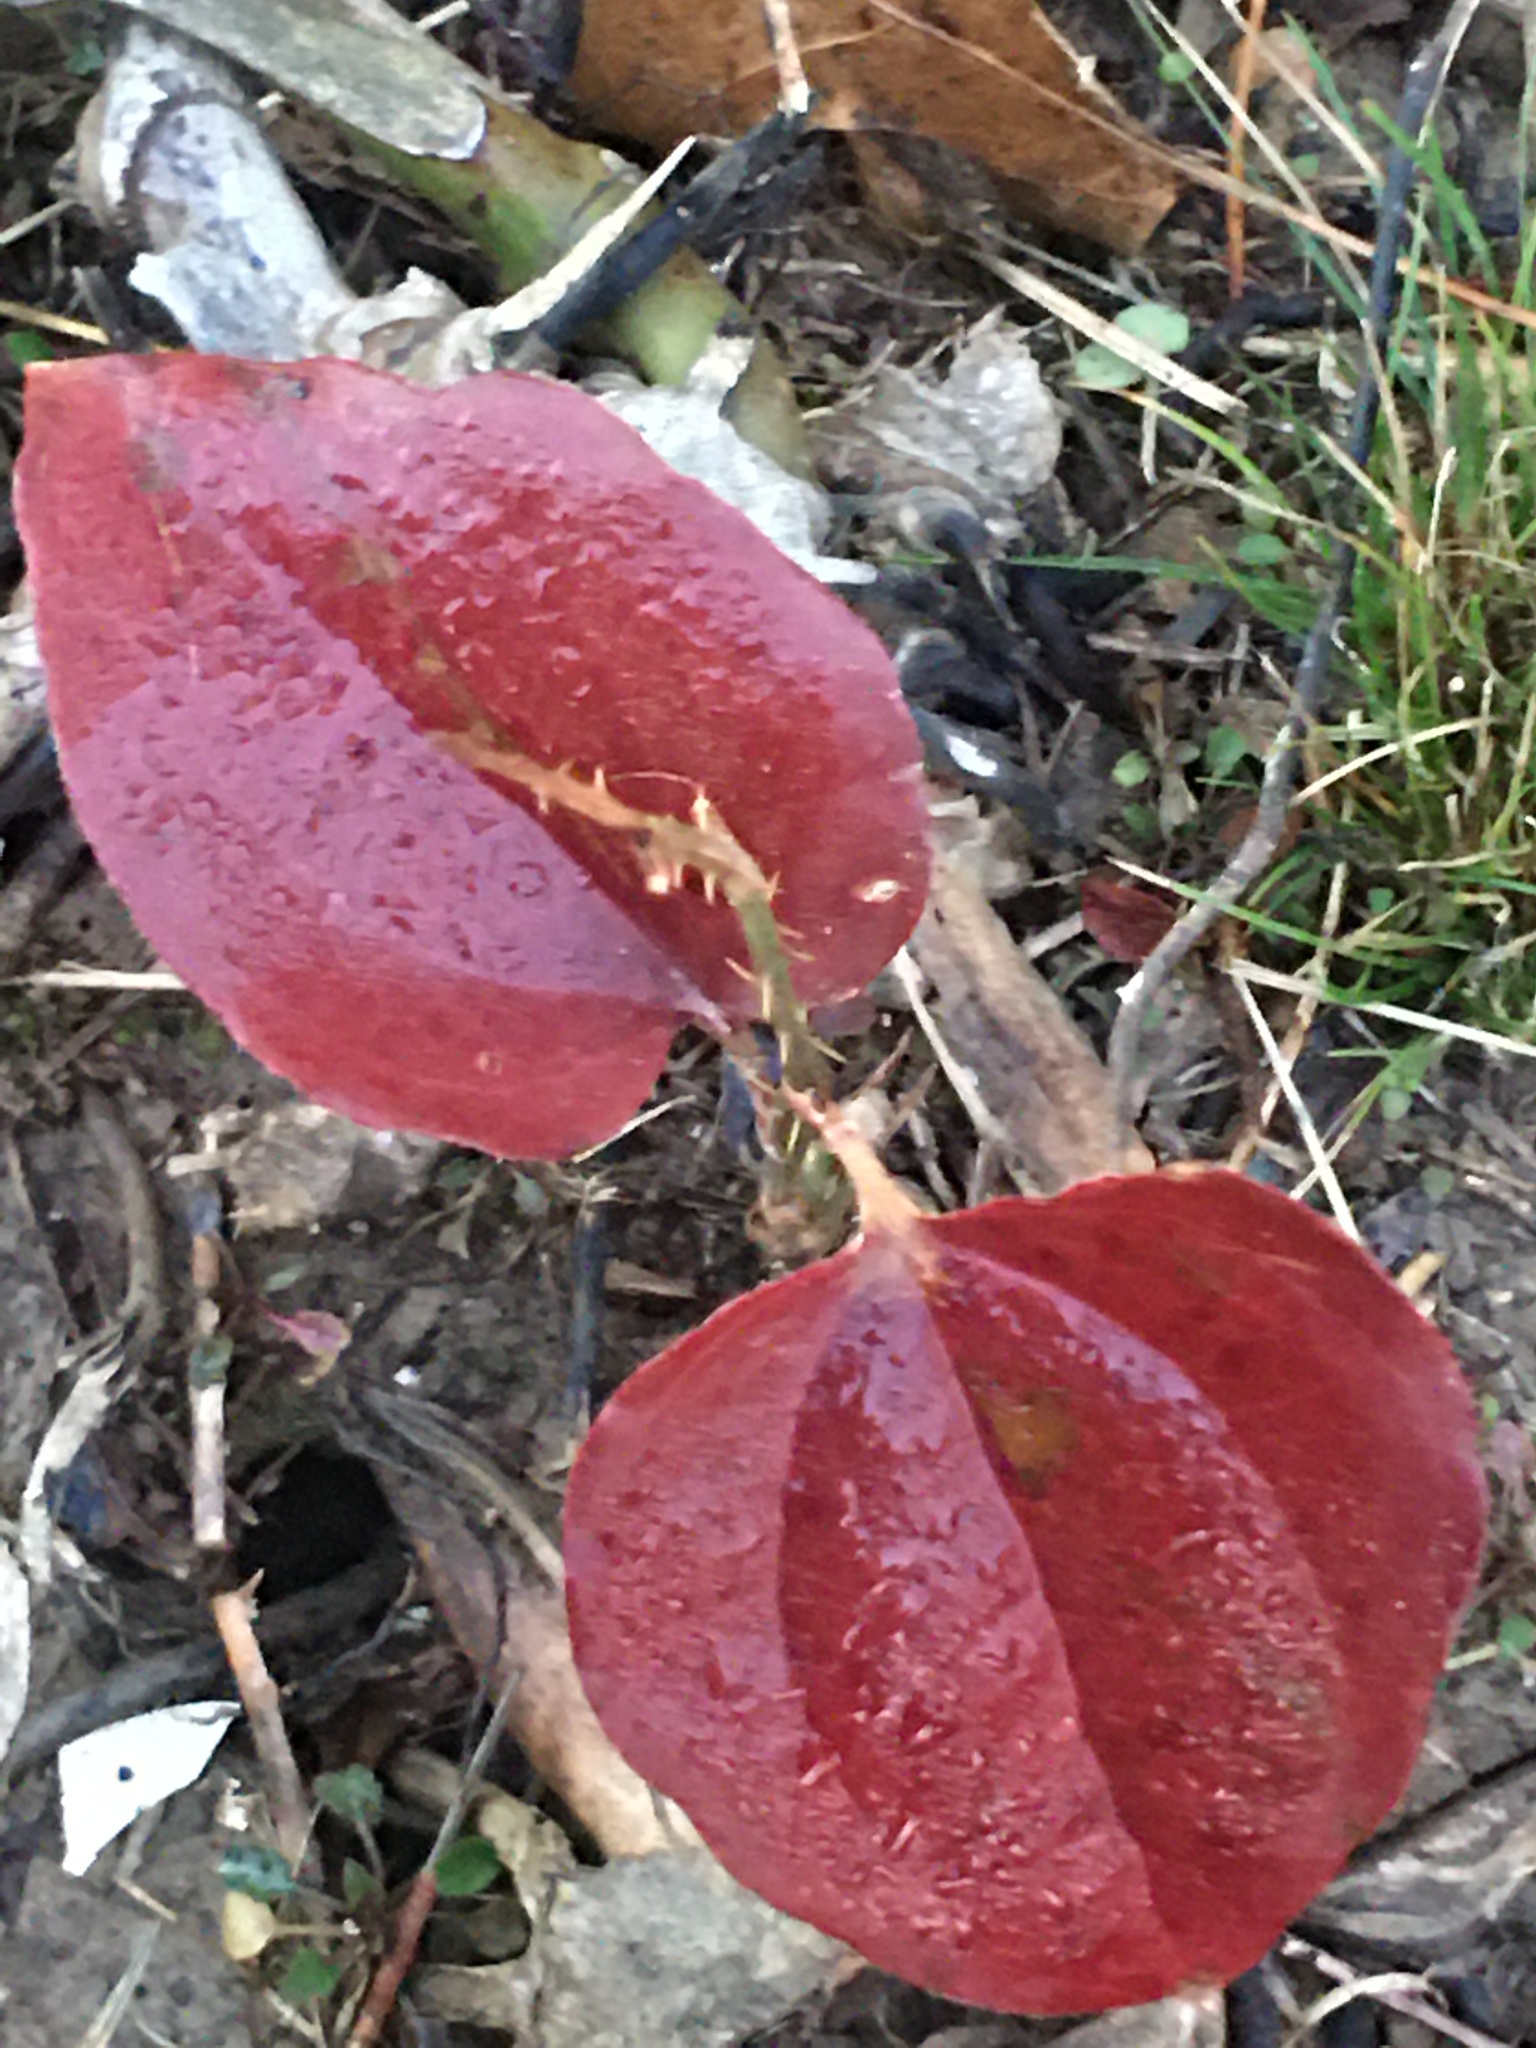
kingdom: Plantae
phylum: Tracheophyta
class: Liliopsida
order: Liliales
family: Smilacaceae
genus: Smilax
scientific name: Smilax rotundifolia
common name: Bullbriar
